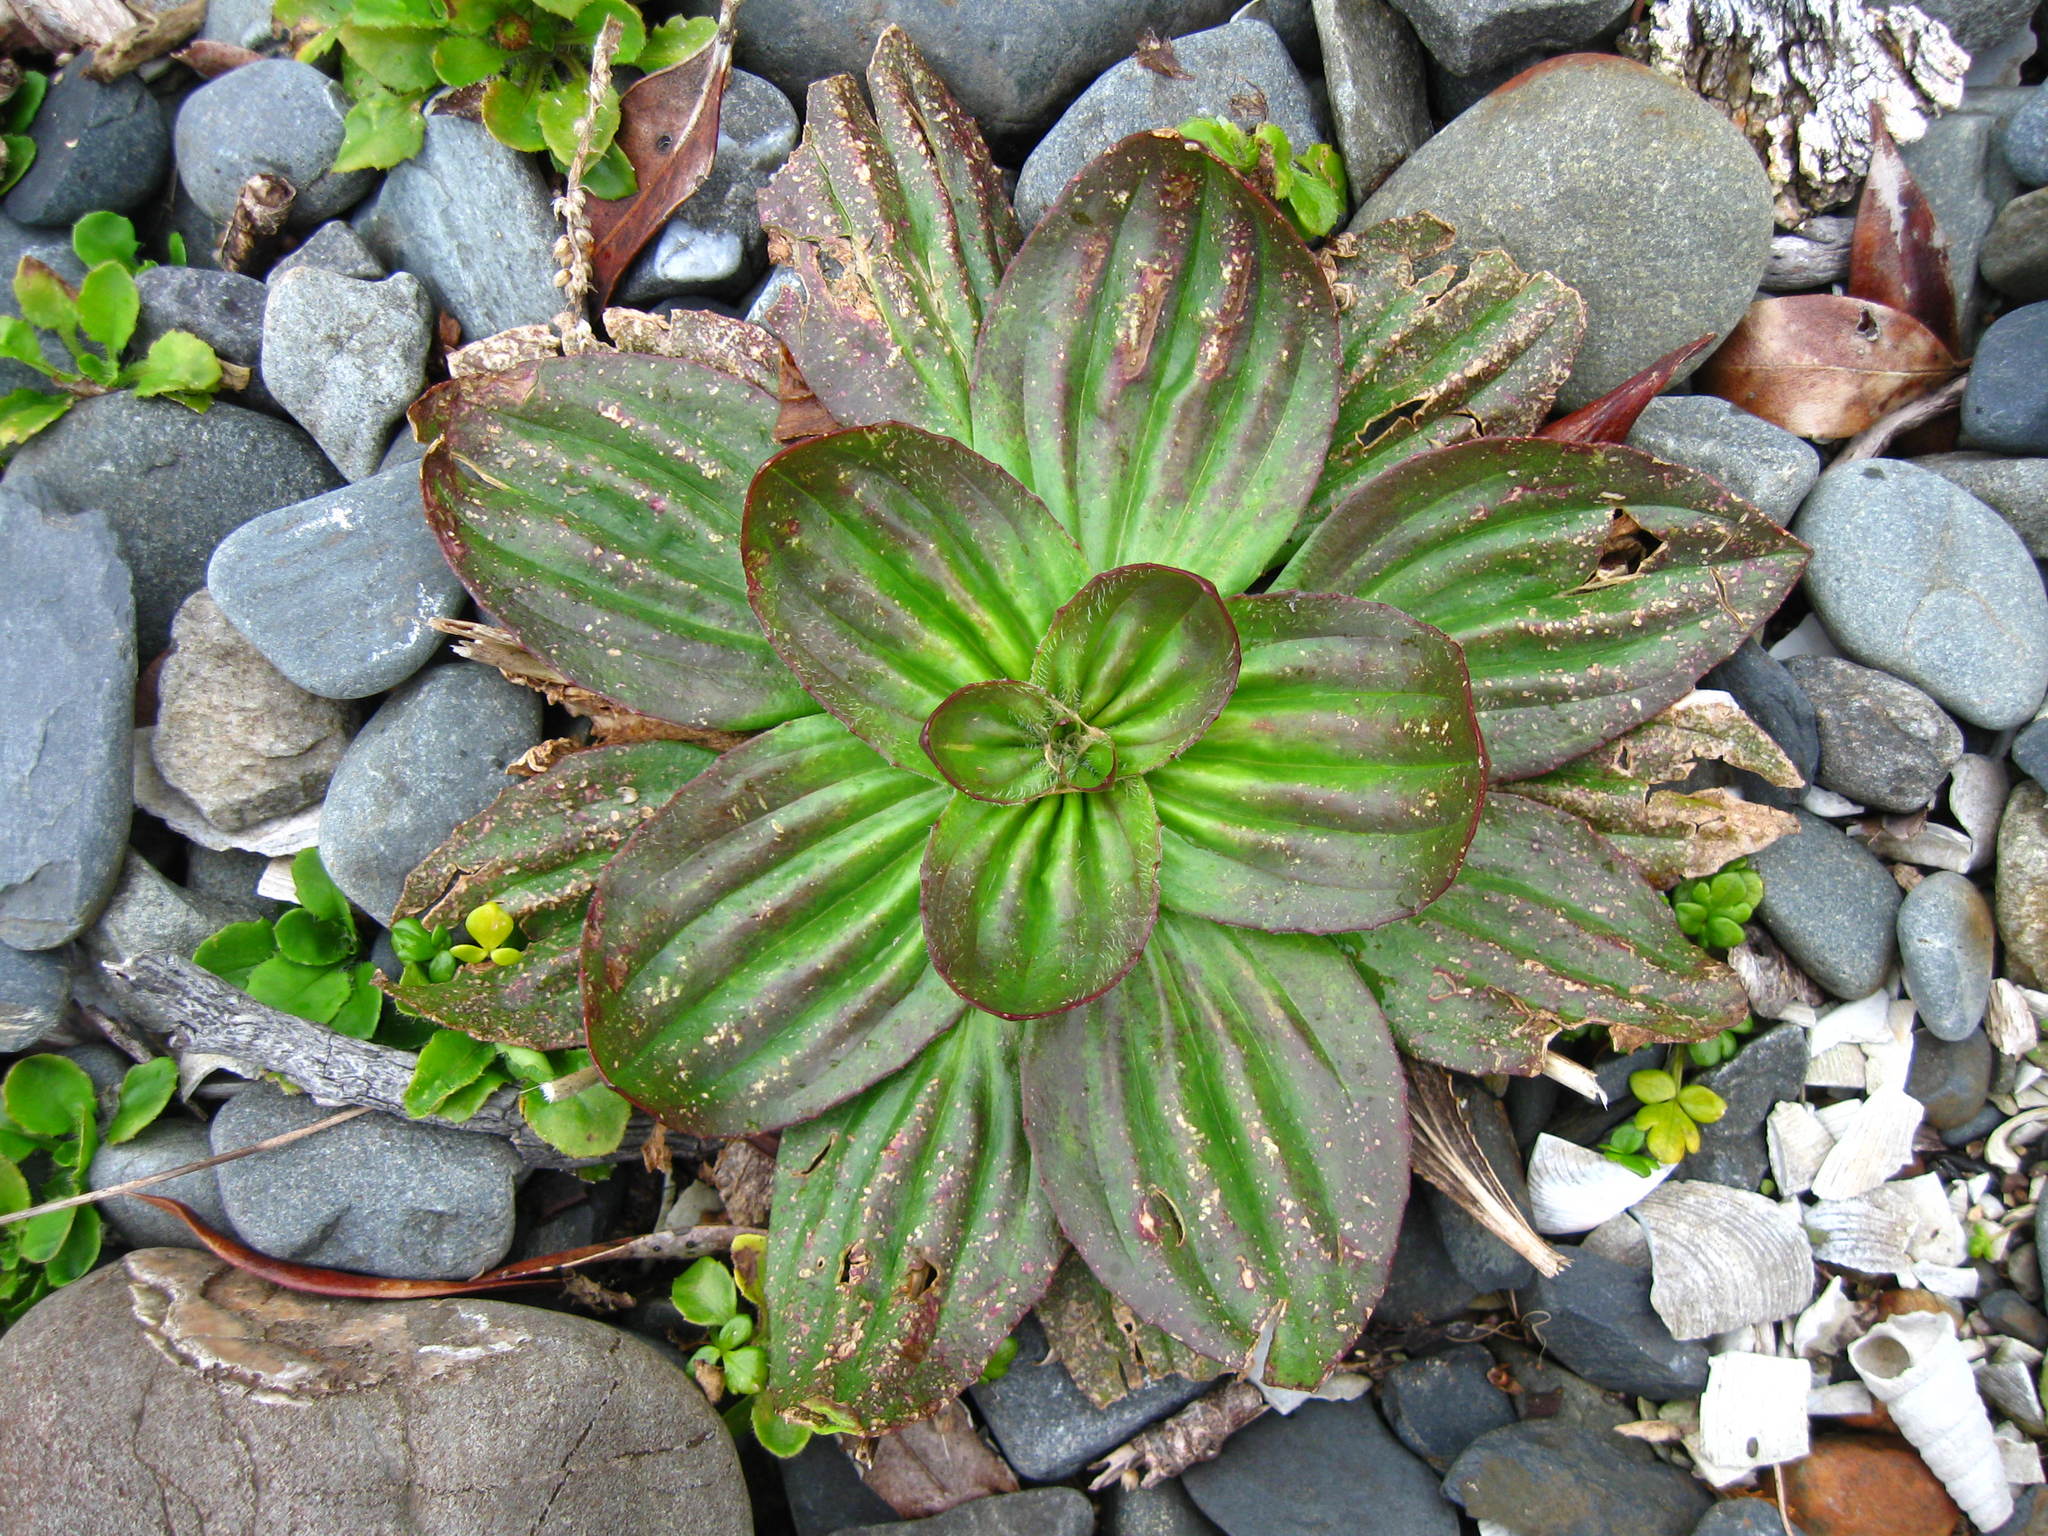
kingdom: Plantae
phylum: Tracheophyta
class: Magnoliopsida
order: Lamiales
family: Plantaginaceae
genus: Plantago
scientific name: Plantago australis
